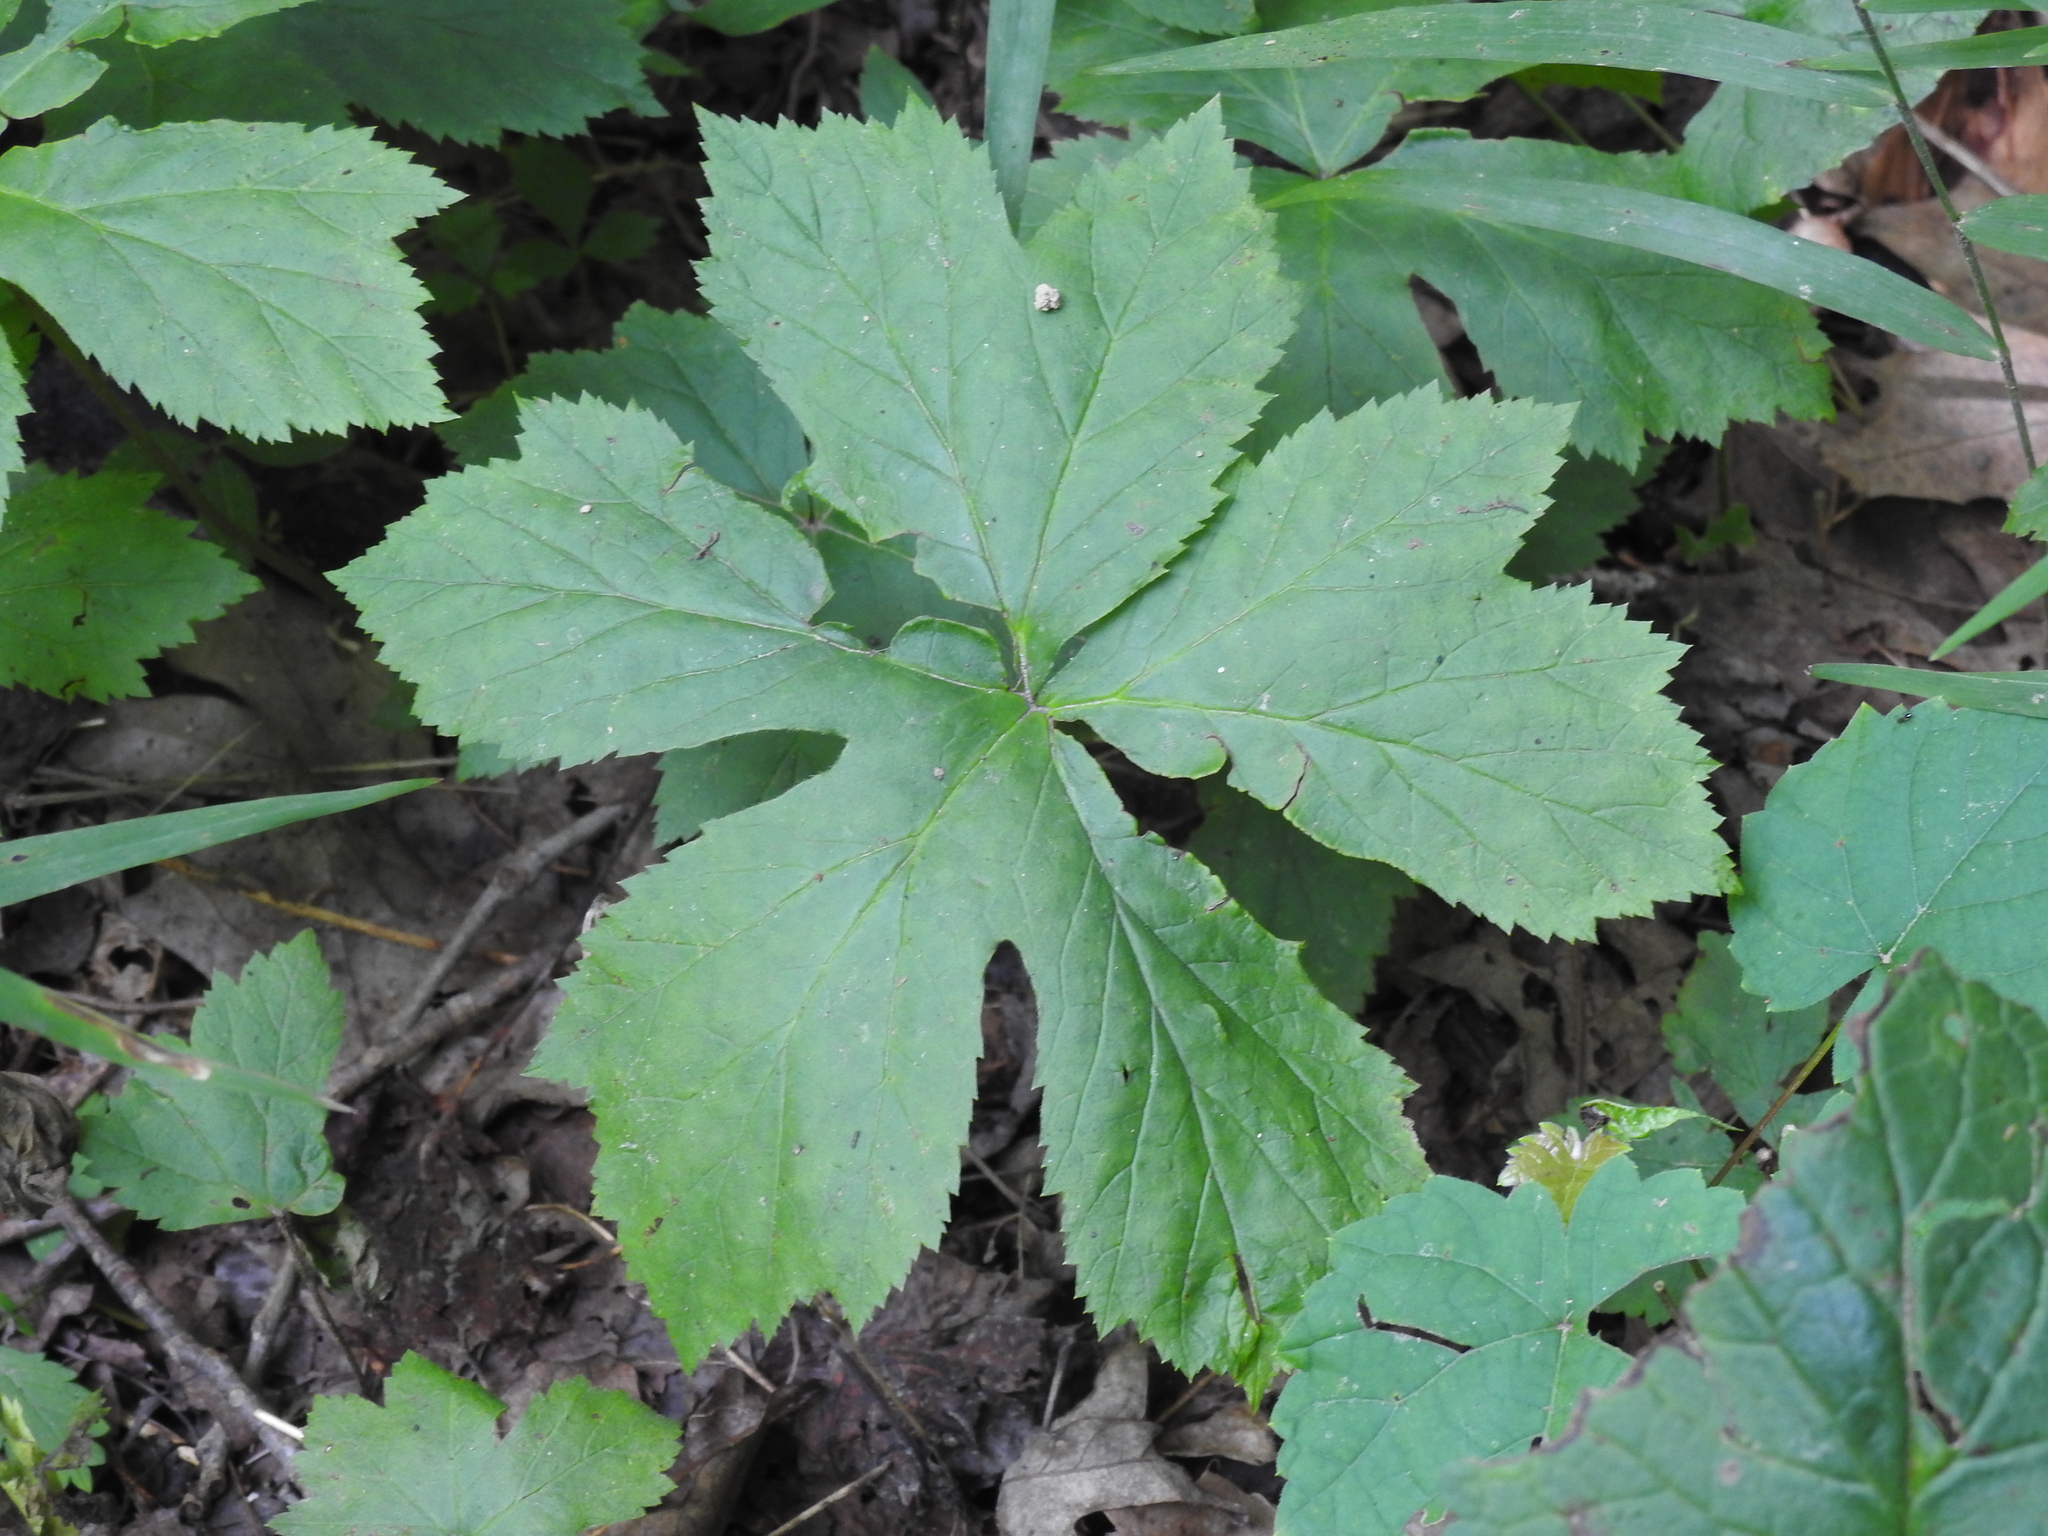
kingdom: Plantae
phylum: Tracheophyta
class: Magnoliopsida
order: Ranunculales
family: Ranunculaceae
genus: Hydrastis
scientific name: Hydrastis canadensis
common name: Goldenseal
